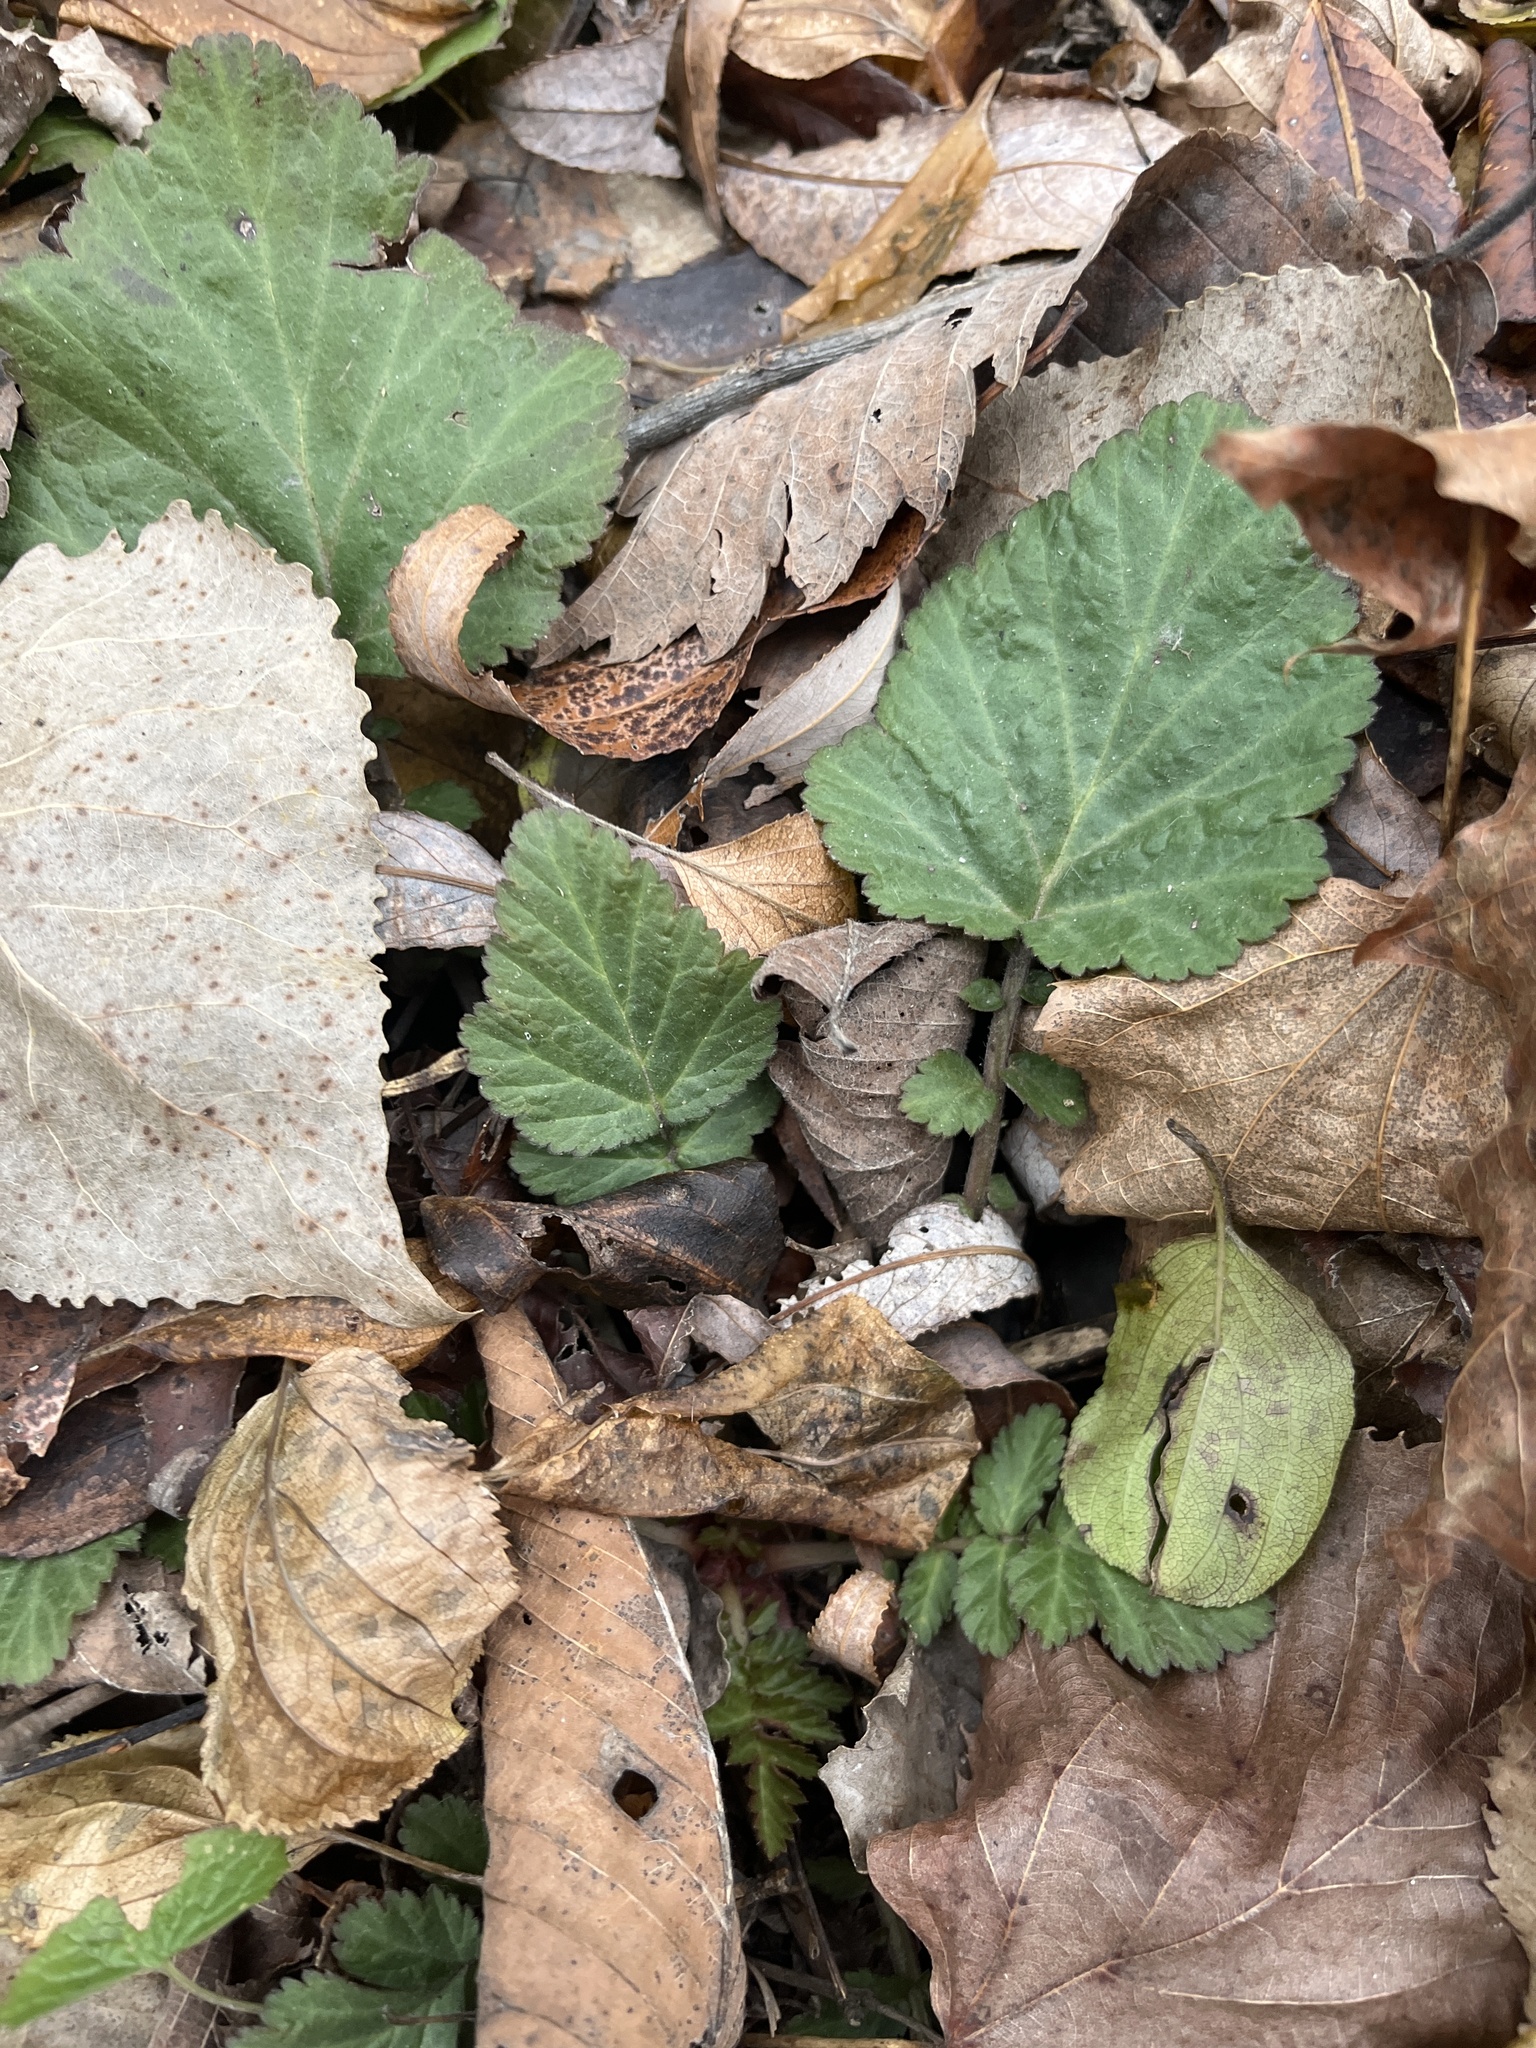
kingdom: Plantae
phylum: Tracheophyta
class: Magnoliopsida
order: Rosales
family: Rosaceae
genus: Geum
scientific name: Geum canadense
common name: White avens
